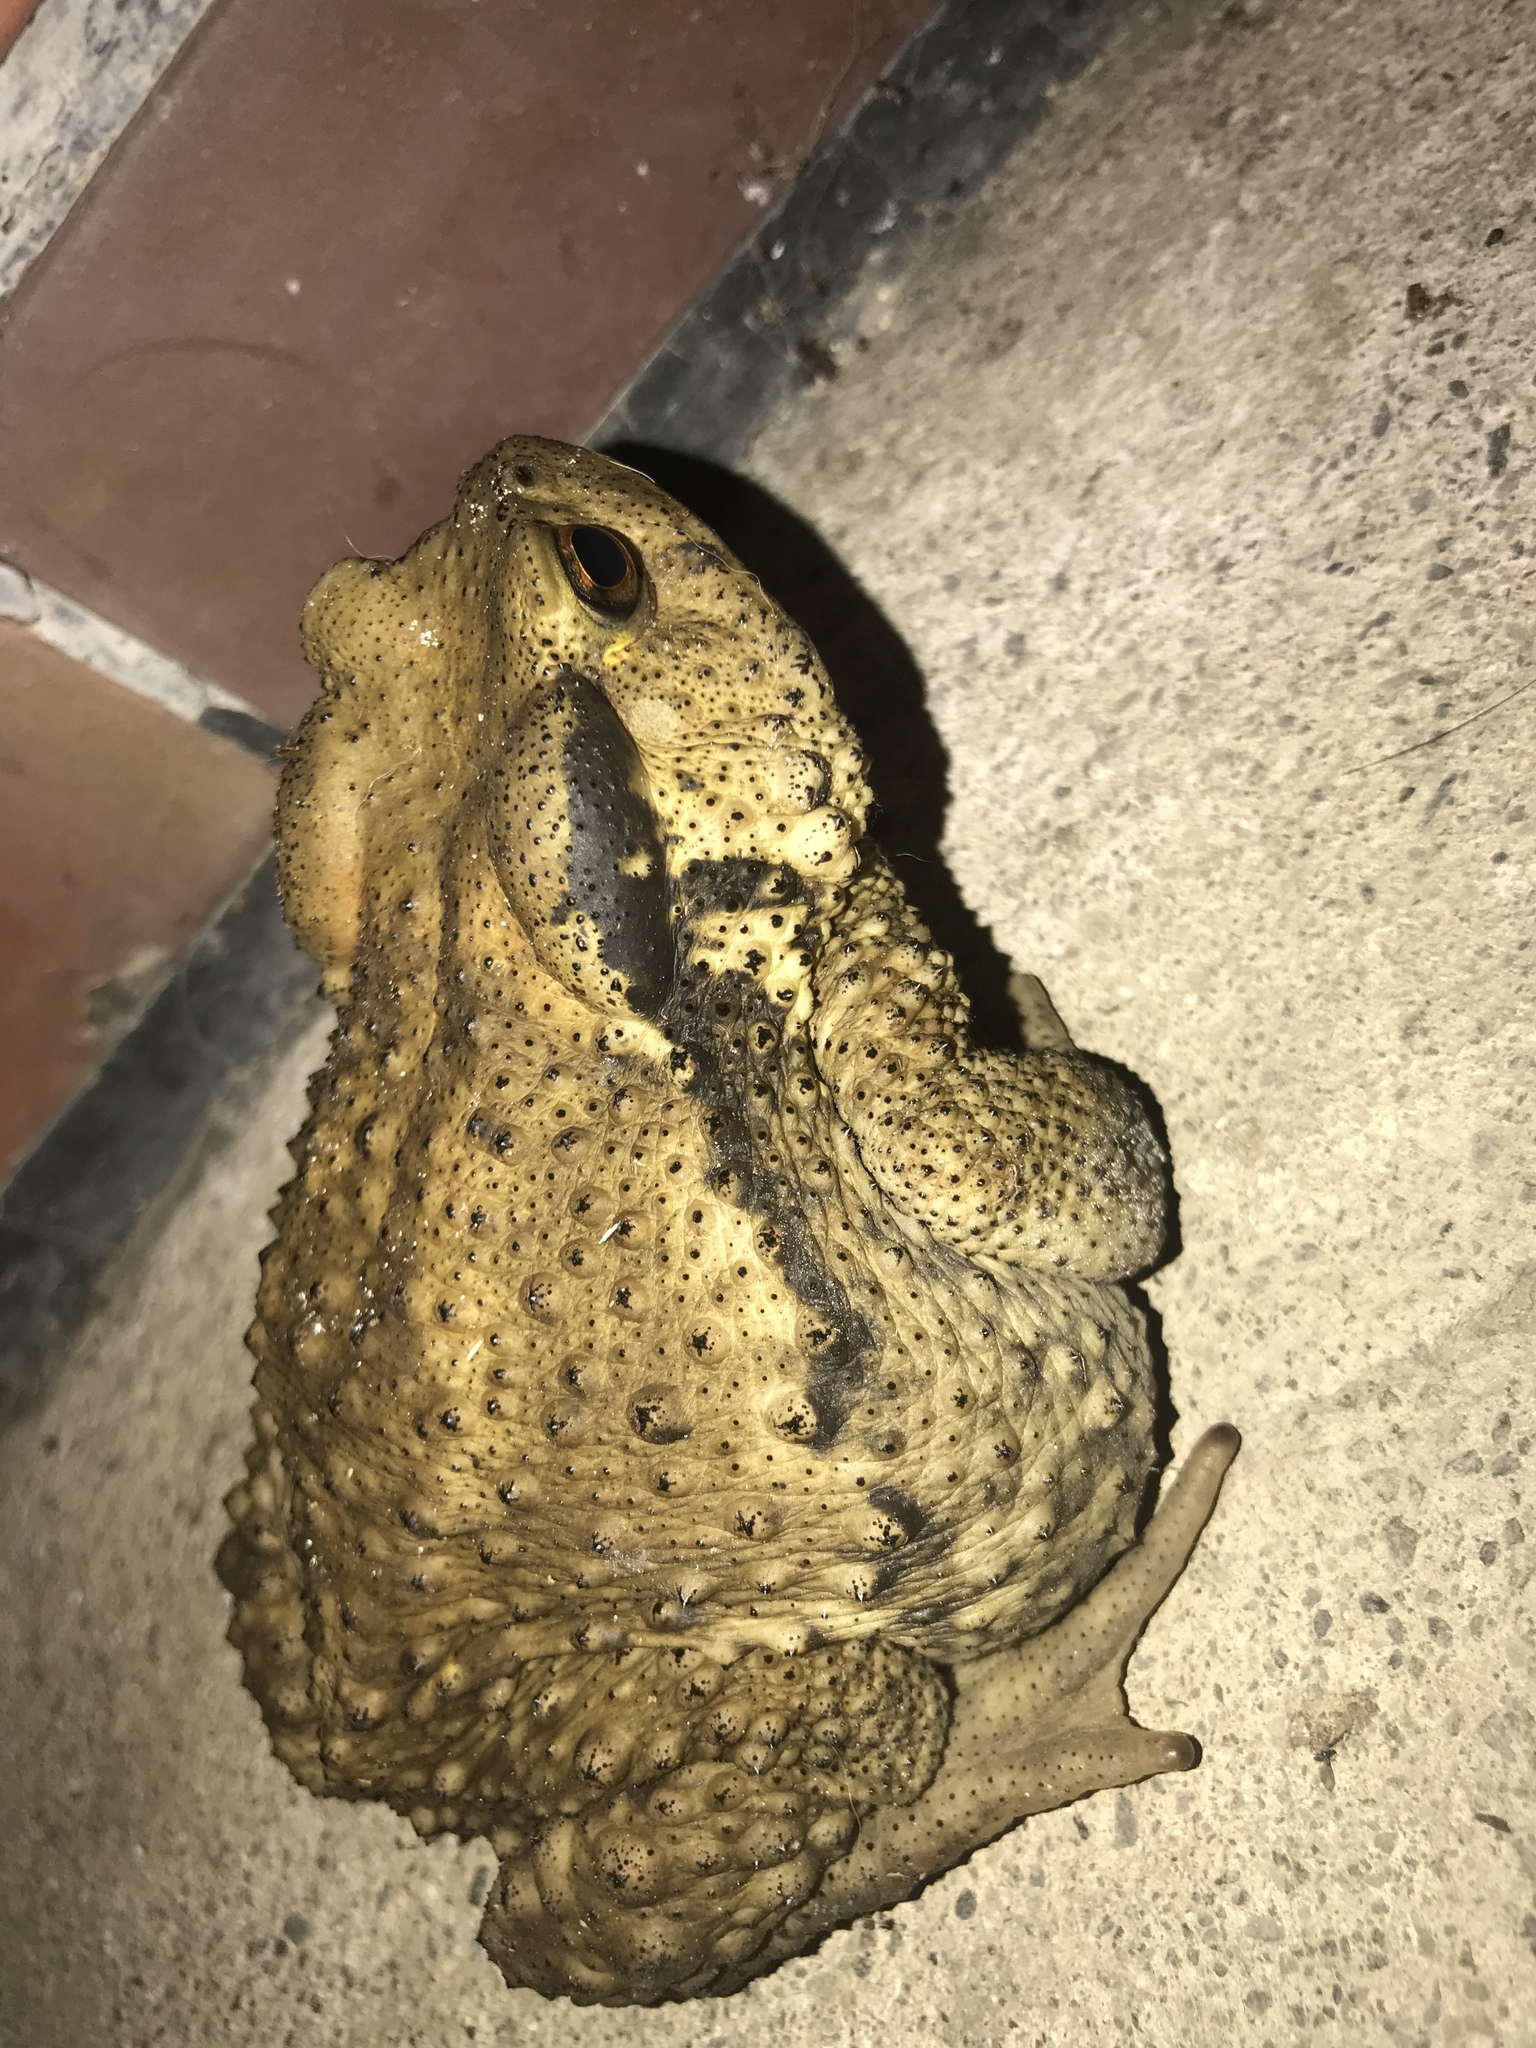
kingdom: Animalia
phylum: Chordata
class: Amphibia
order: Anura
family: Bufonidae
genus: Bufo
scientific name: Bufo bankorensis
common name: Bankor toad
